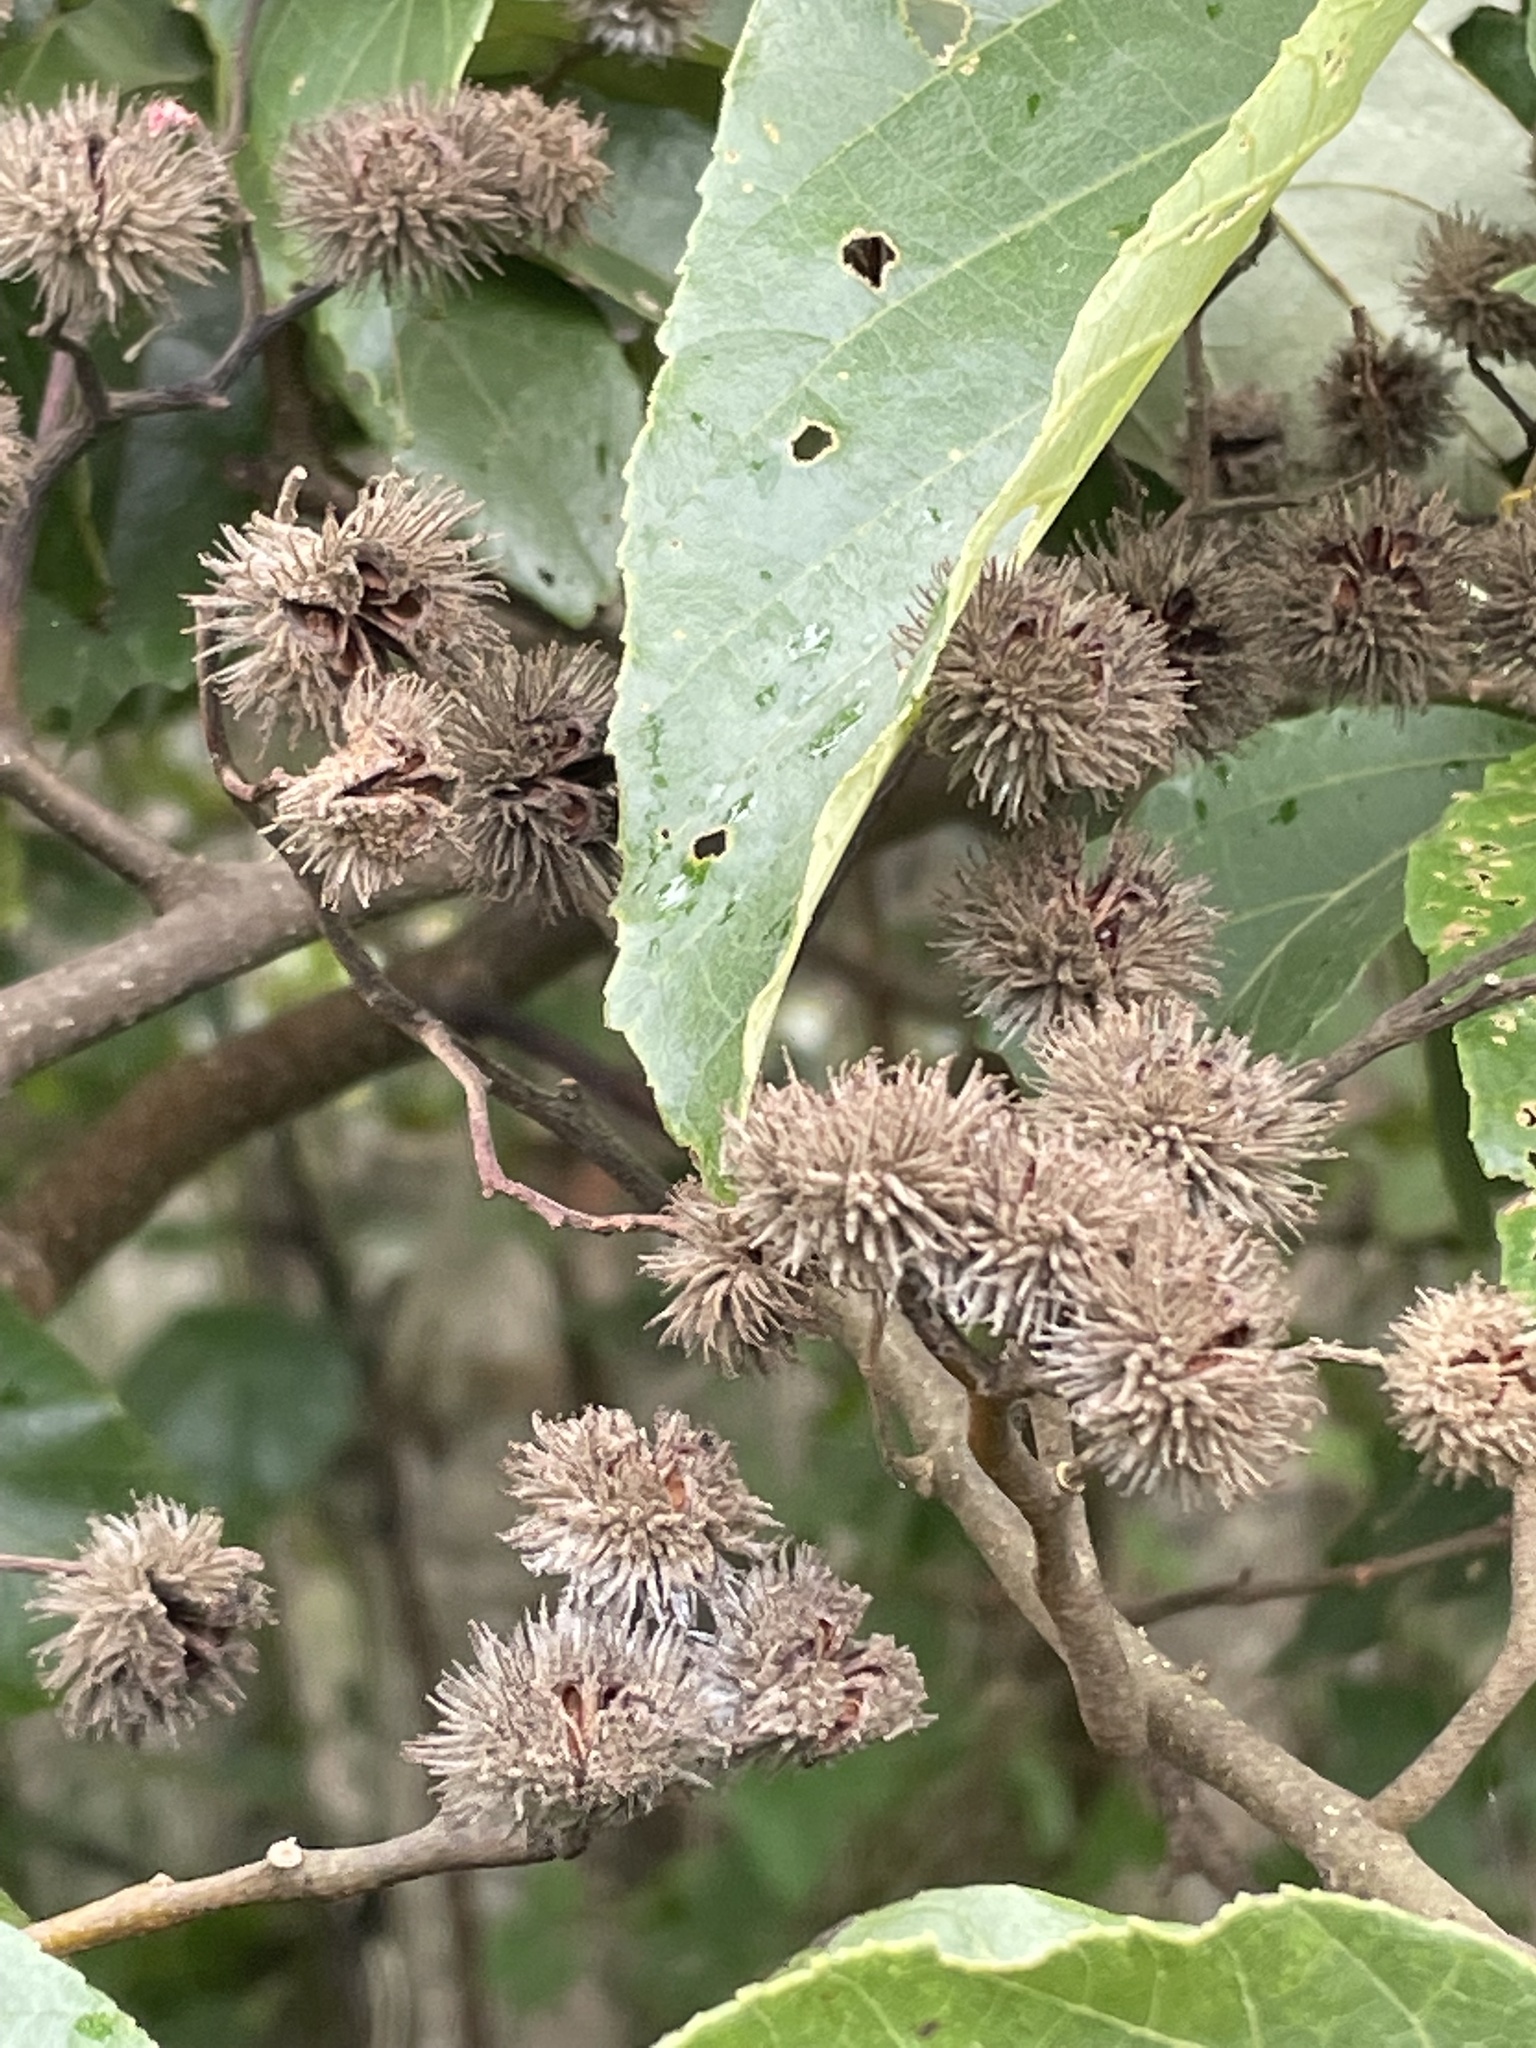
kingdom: Plantae
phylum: Tracheophyta
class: Magnoliopsida
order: Malvales
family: Malvaceae
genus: Commersonia
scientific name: Commersonia bartramia
